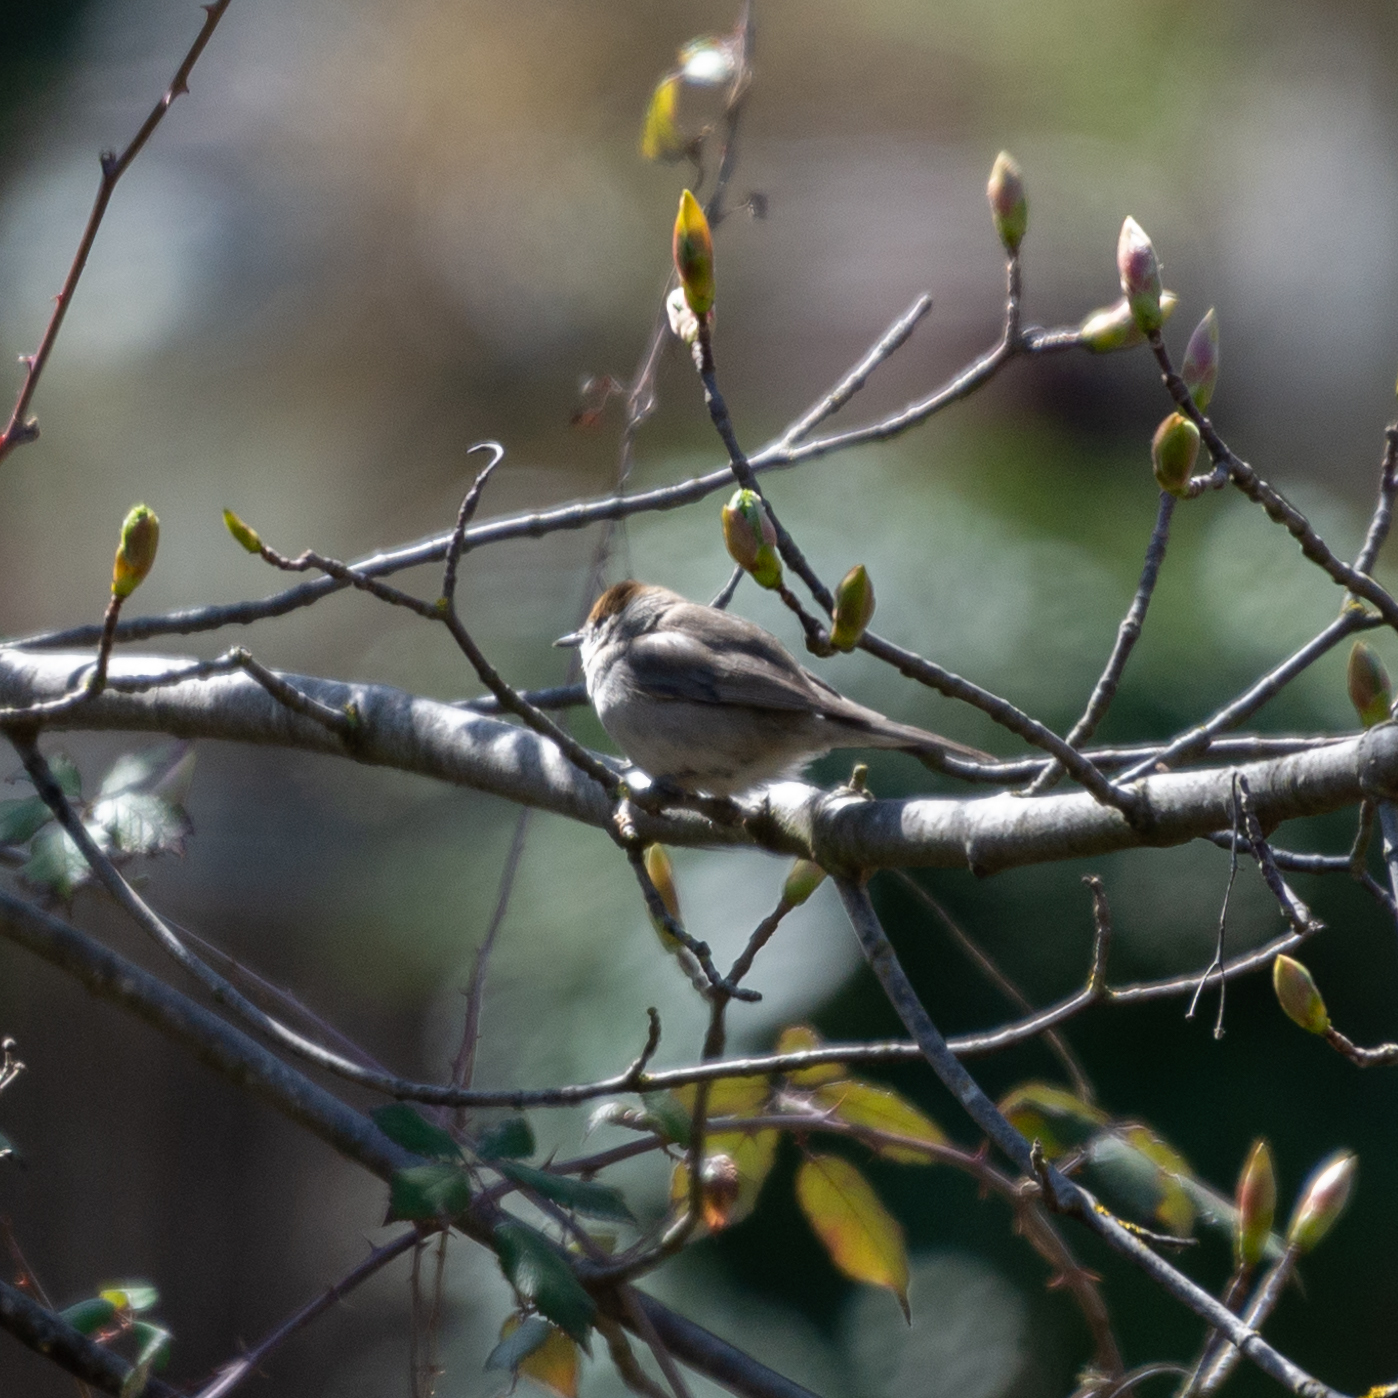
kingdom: Animalia
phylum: Chordata
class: Aves
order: Passeriformes
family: Sylviidae
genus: Sylvia
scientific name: Sylvia atricapilla
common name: Eurasian blackcap
